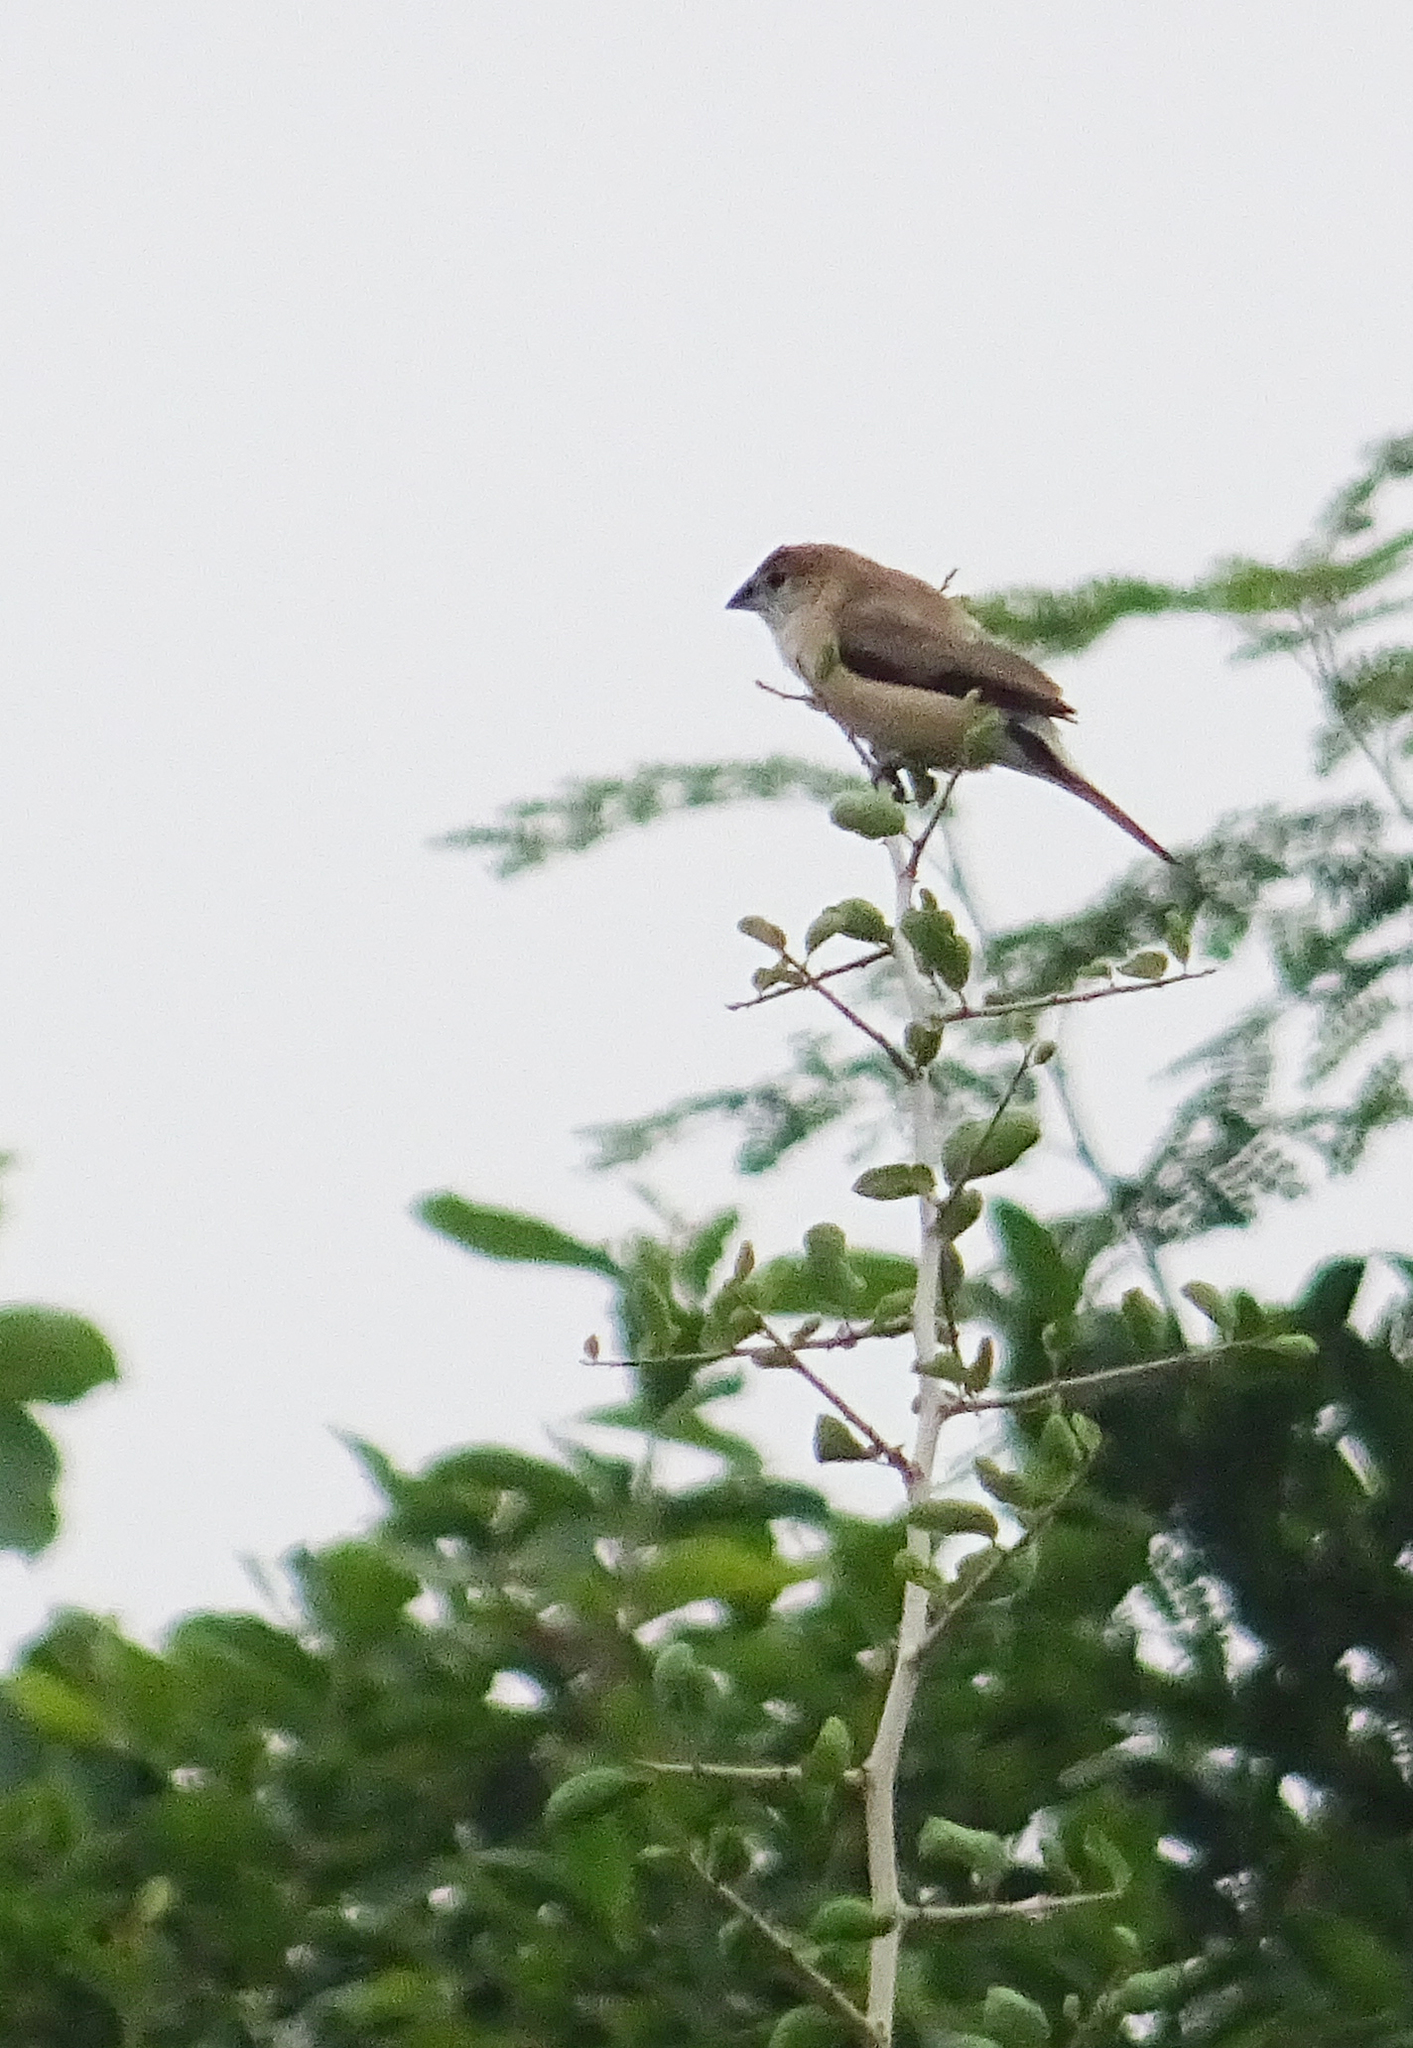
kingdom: Animalia
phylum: Chordata
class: Aves
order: Passeriformes
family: Estrildidae
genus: Euodice
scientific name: Euodice malabarica
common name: Indian silverbill
